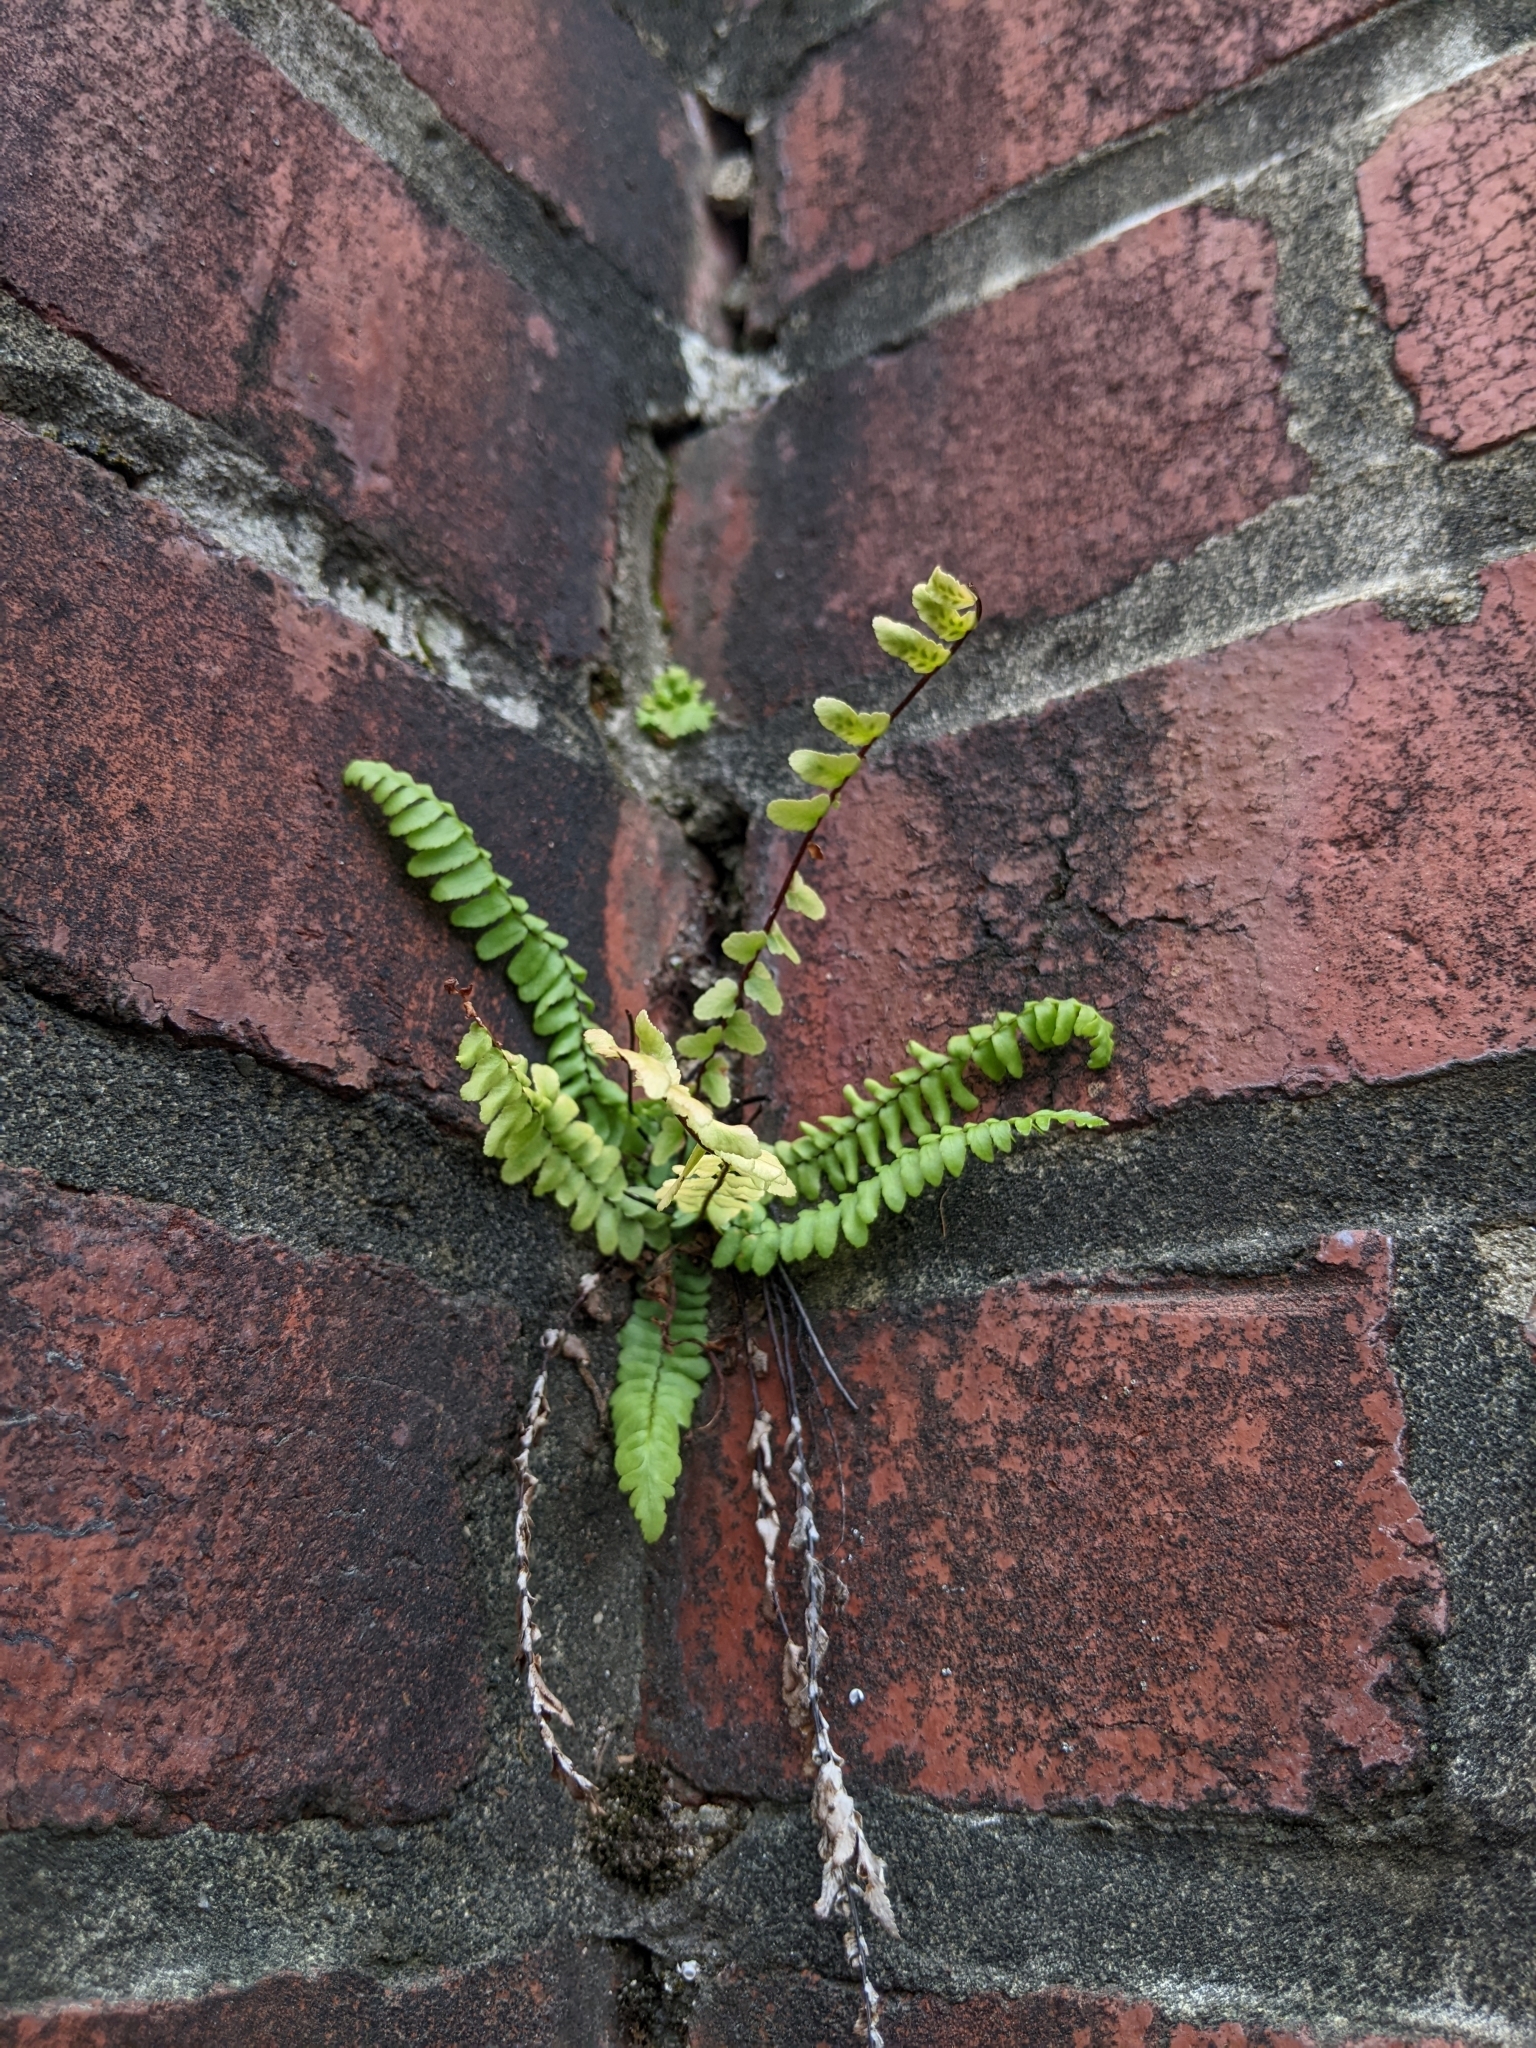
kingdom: Plantae
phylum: Tracheophyta
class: Polypodiopsida
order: Polypodiales
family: Aspleniaceae
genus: Asplenium
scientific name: Asplenium platyneuron
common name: Ebony spleenwort
